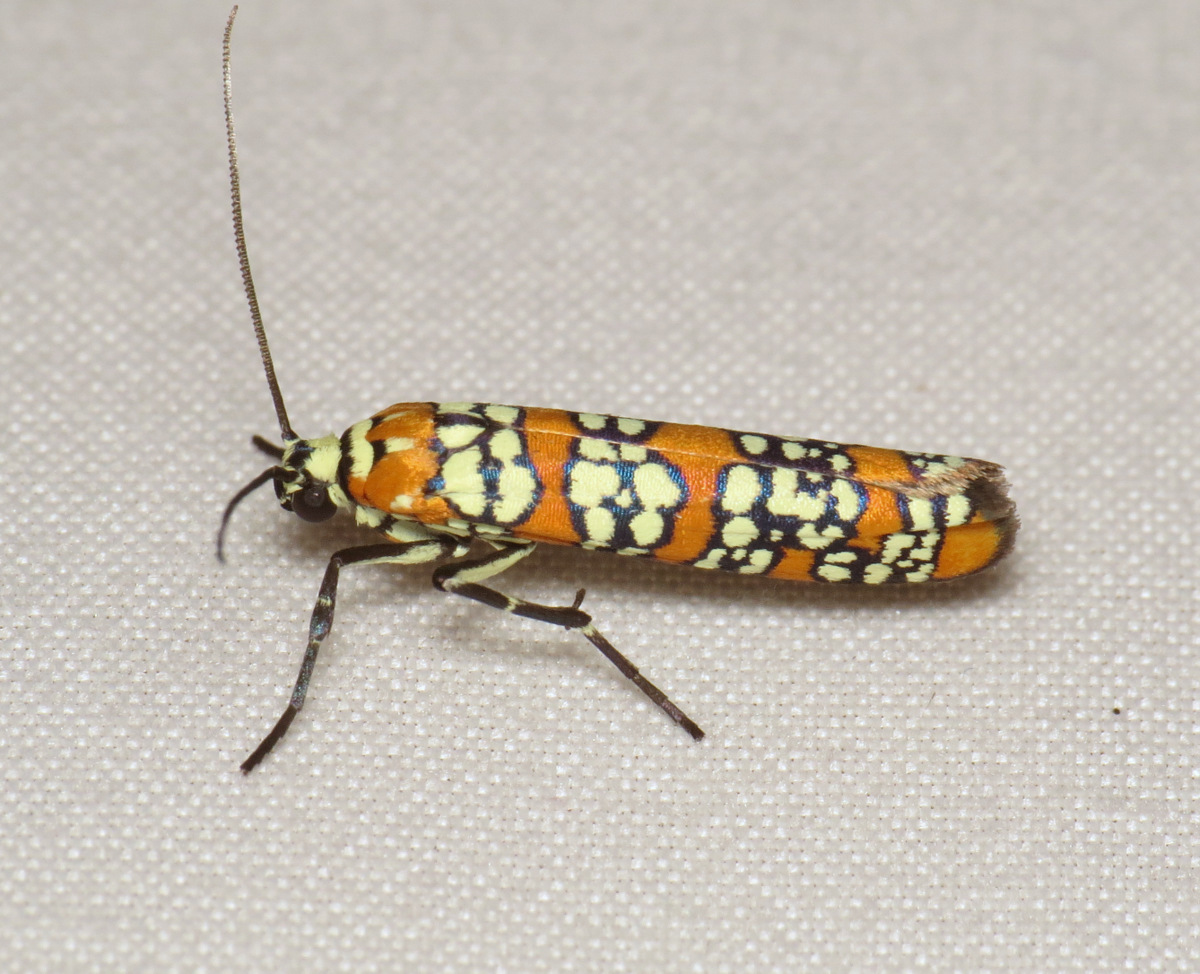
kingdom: Animalia
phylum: Arthropoda
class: Insecta
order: Lepidoptera
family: Attevidae
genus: Atteva
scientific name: Atteva punctella
